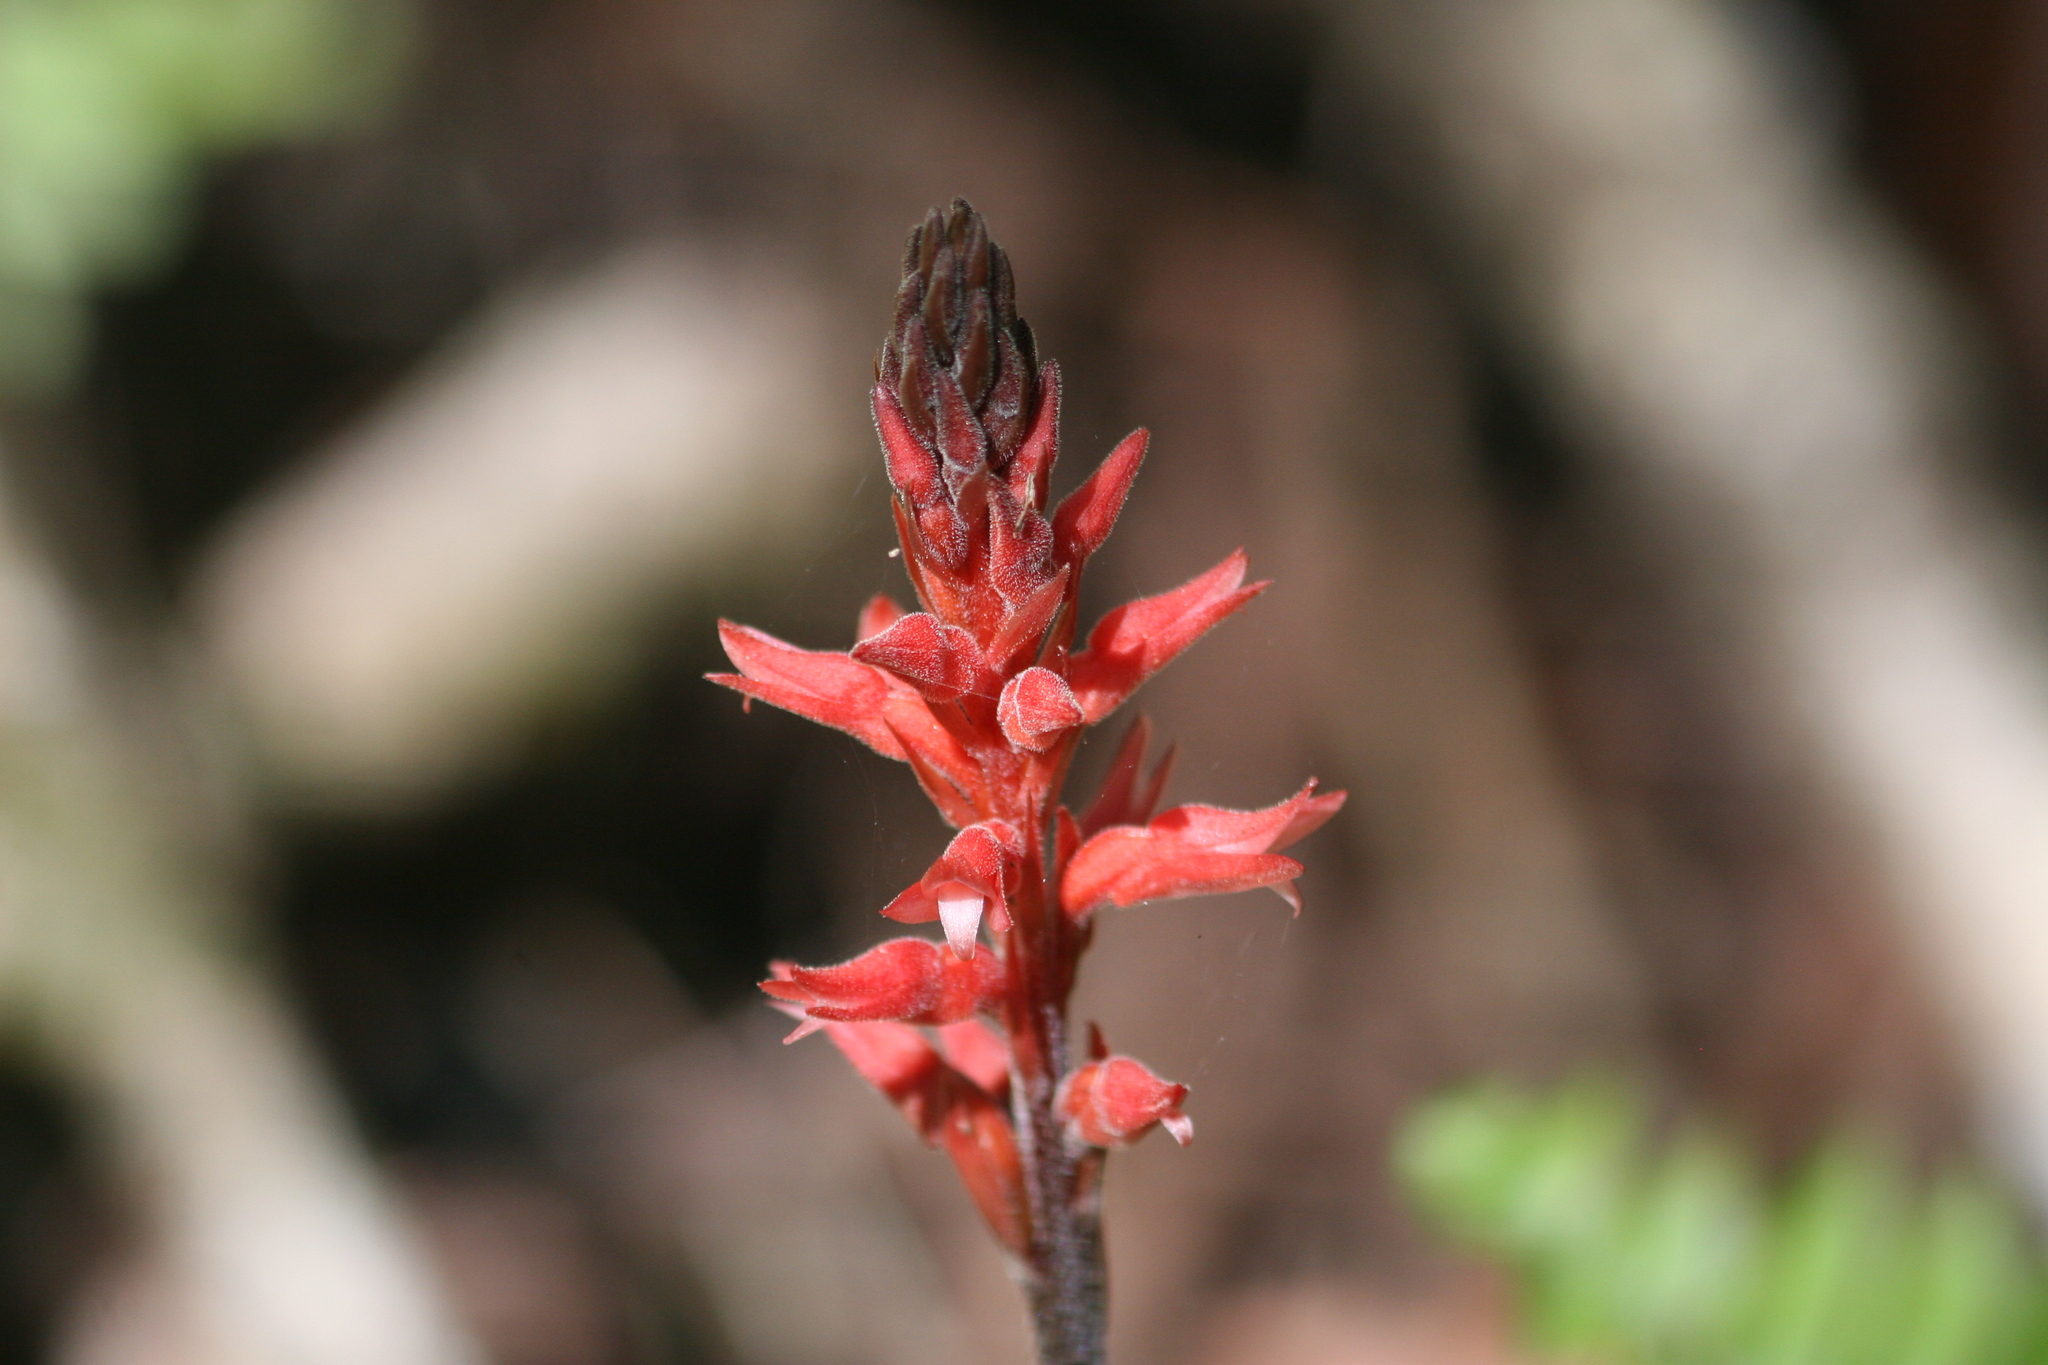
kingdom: Plantae
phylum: Tracheophyta
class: Liliopsida
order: Asparagales
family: Orchidaceae
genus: Sacoila
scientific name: Sacoila lanceolata
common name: Leafless beaked ladiestresses
